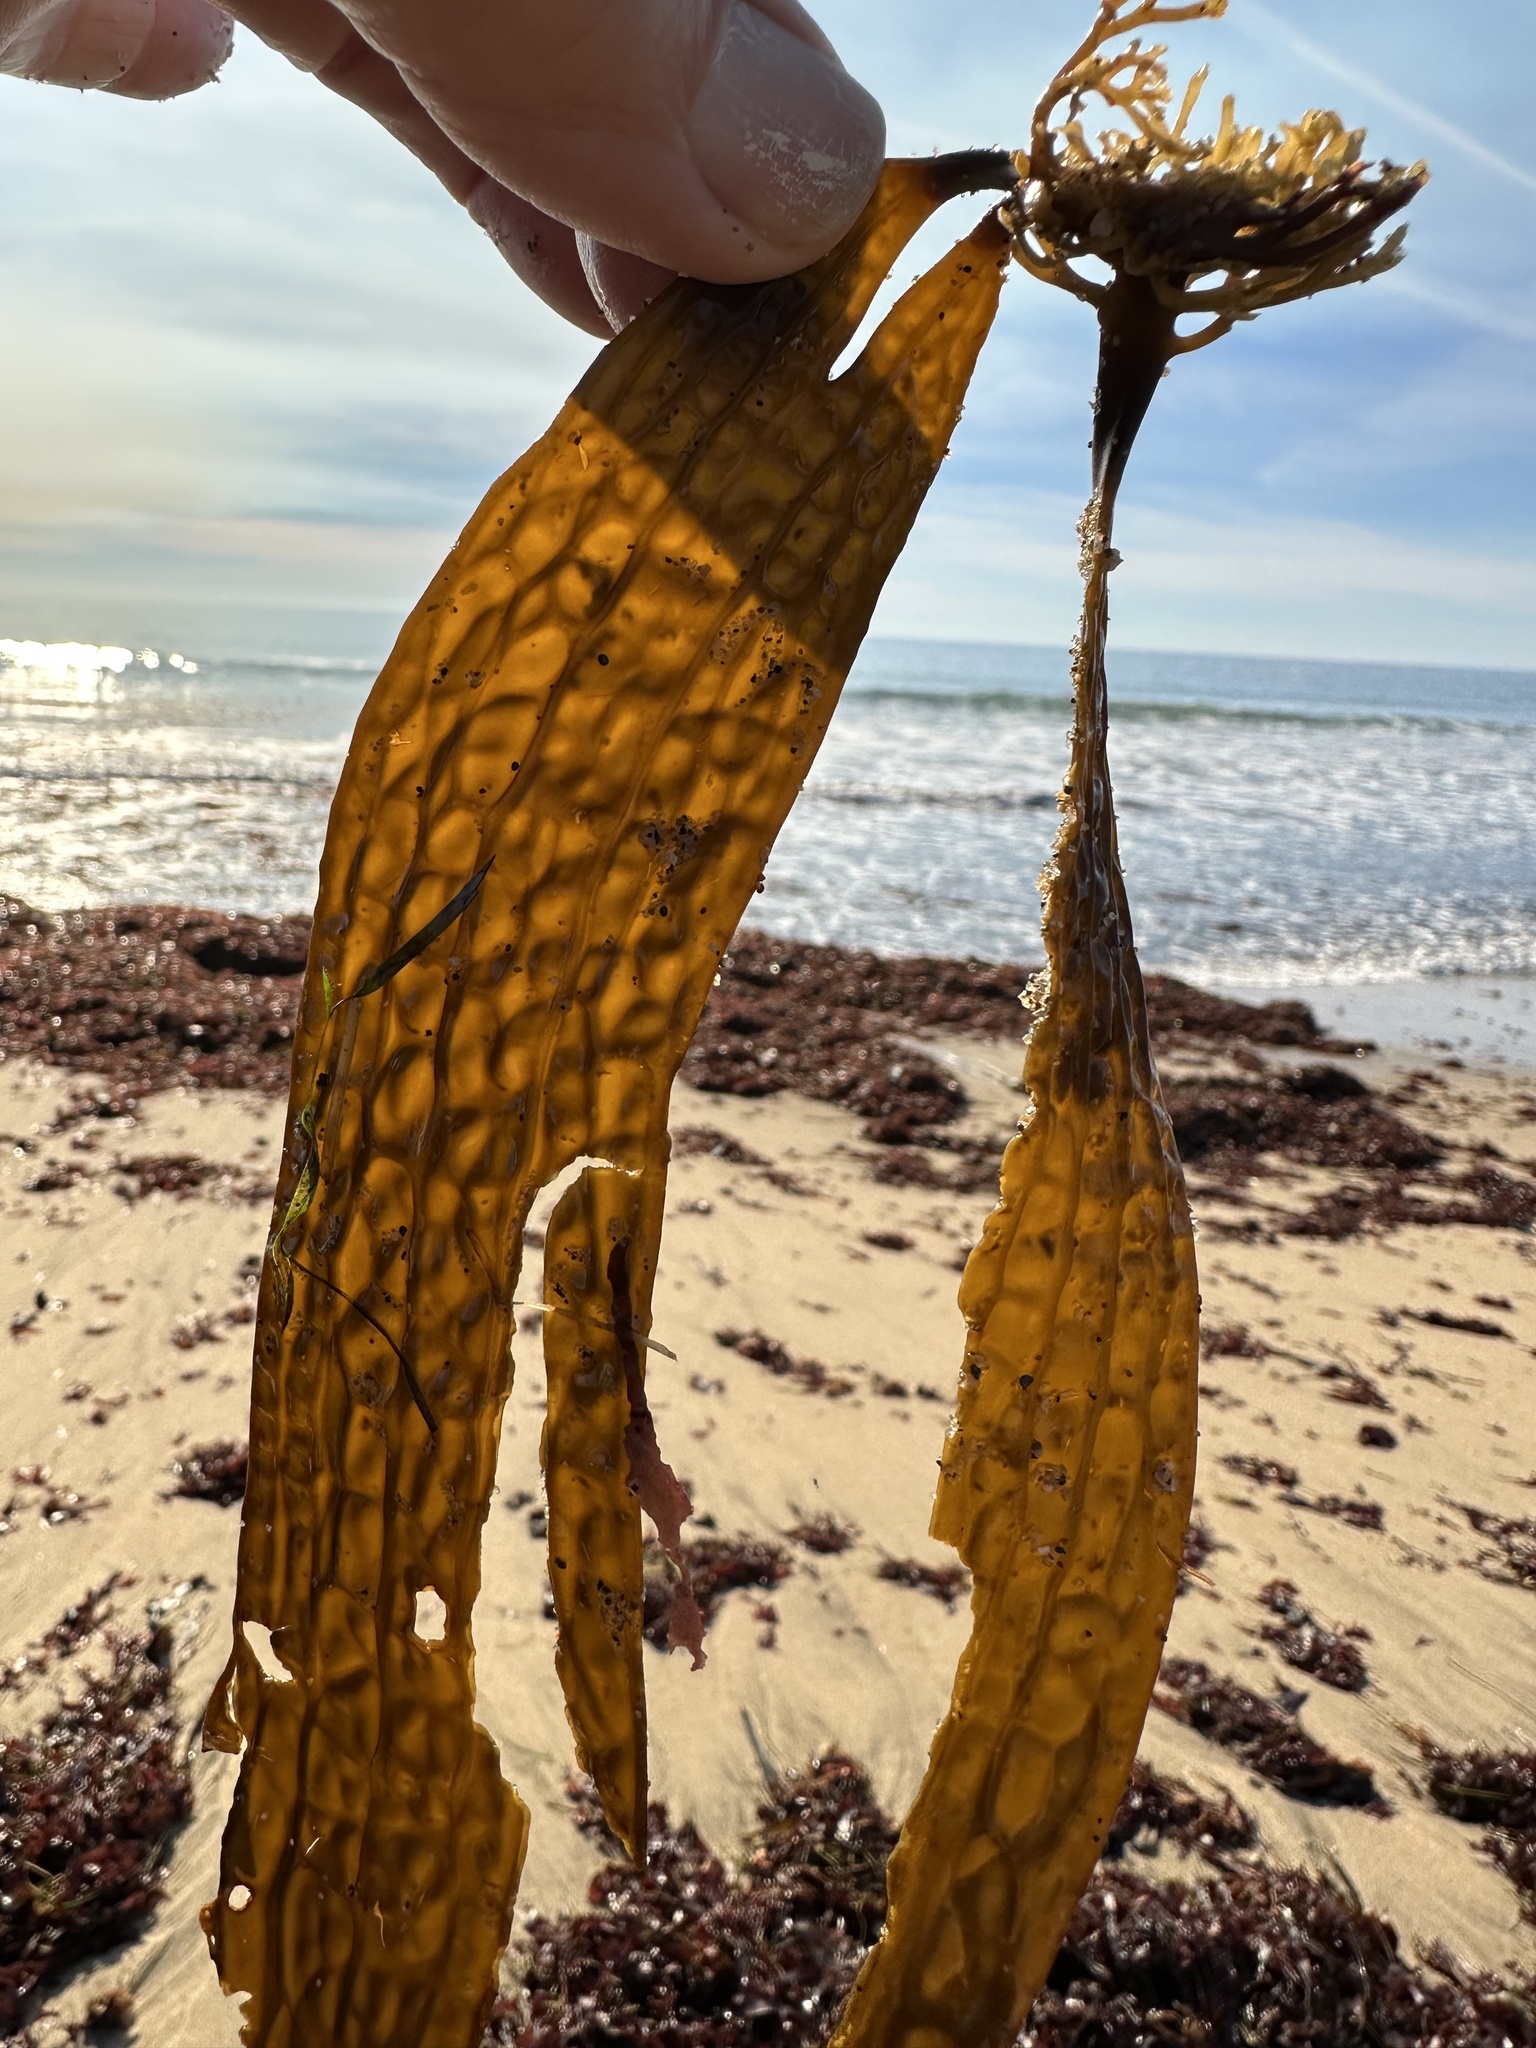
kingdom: Chromista
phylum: Ochrophyta
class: Phaeophyceae
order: Laminariales
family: Costariaceae
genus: Dictyoneurum
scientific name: Dictyoneurum californicum
